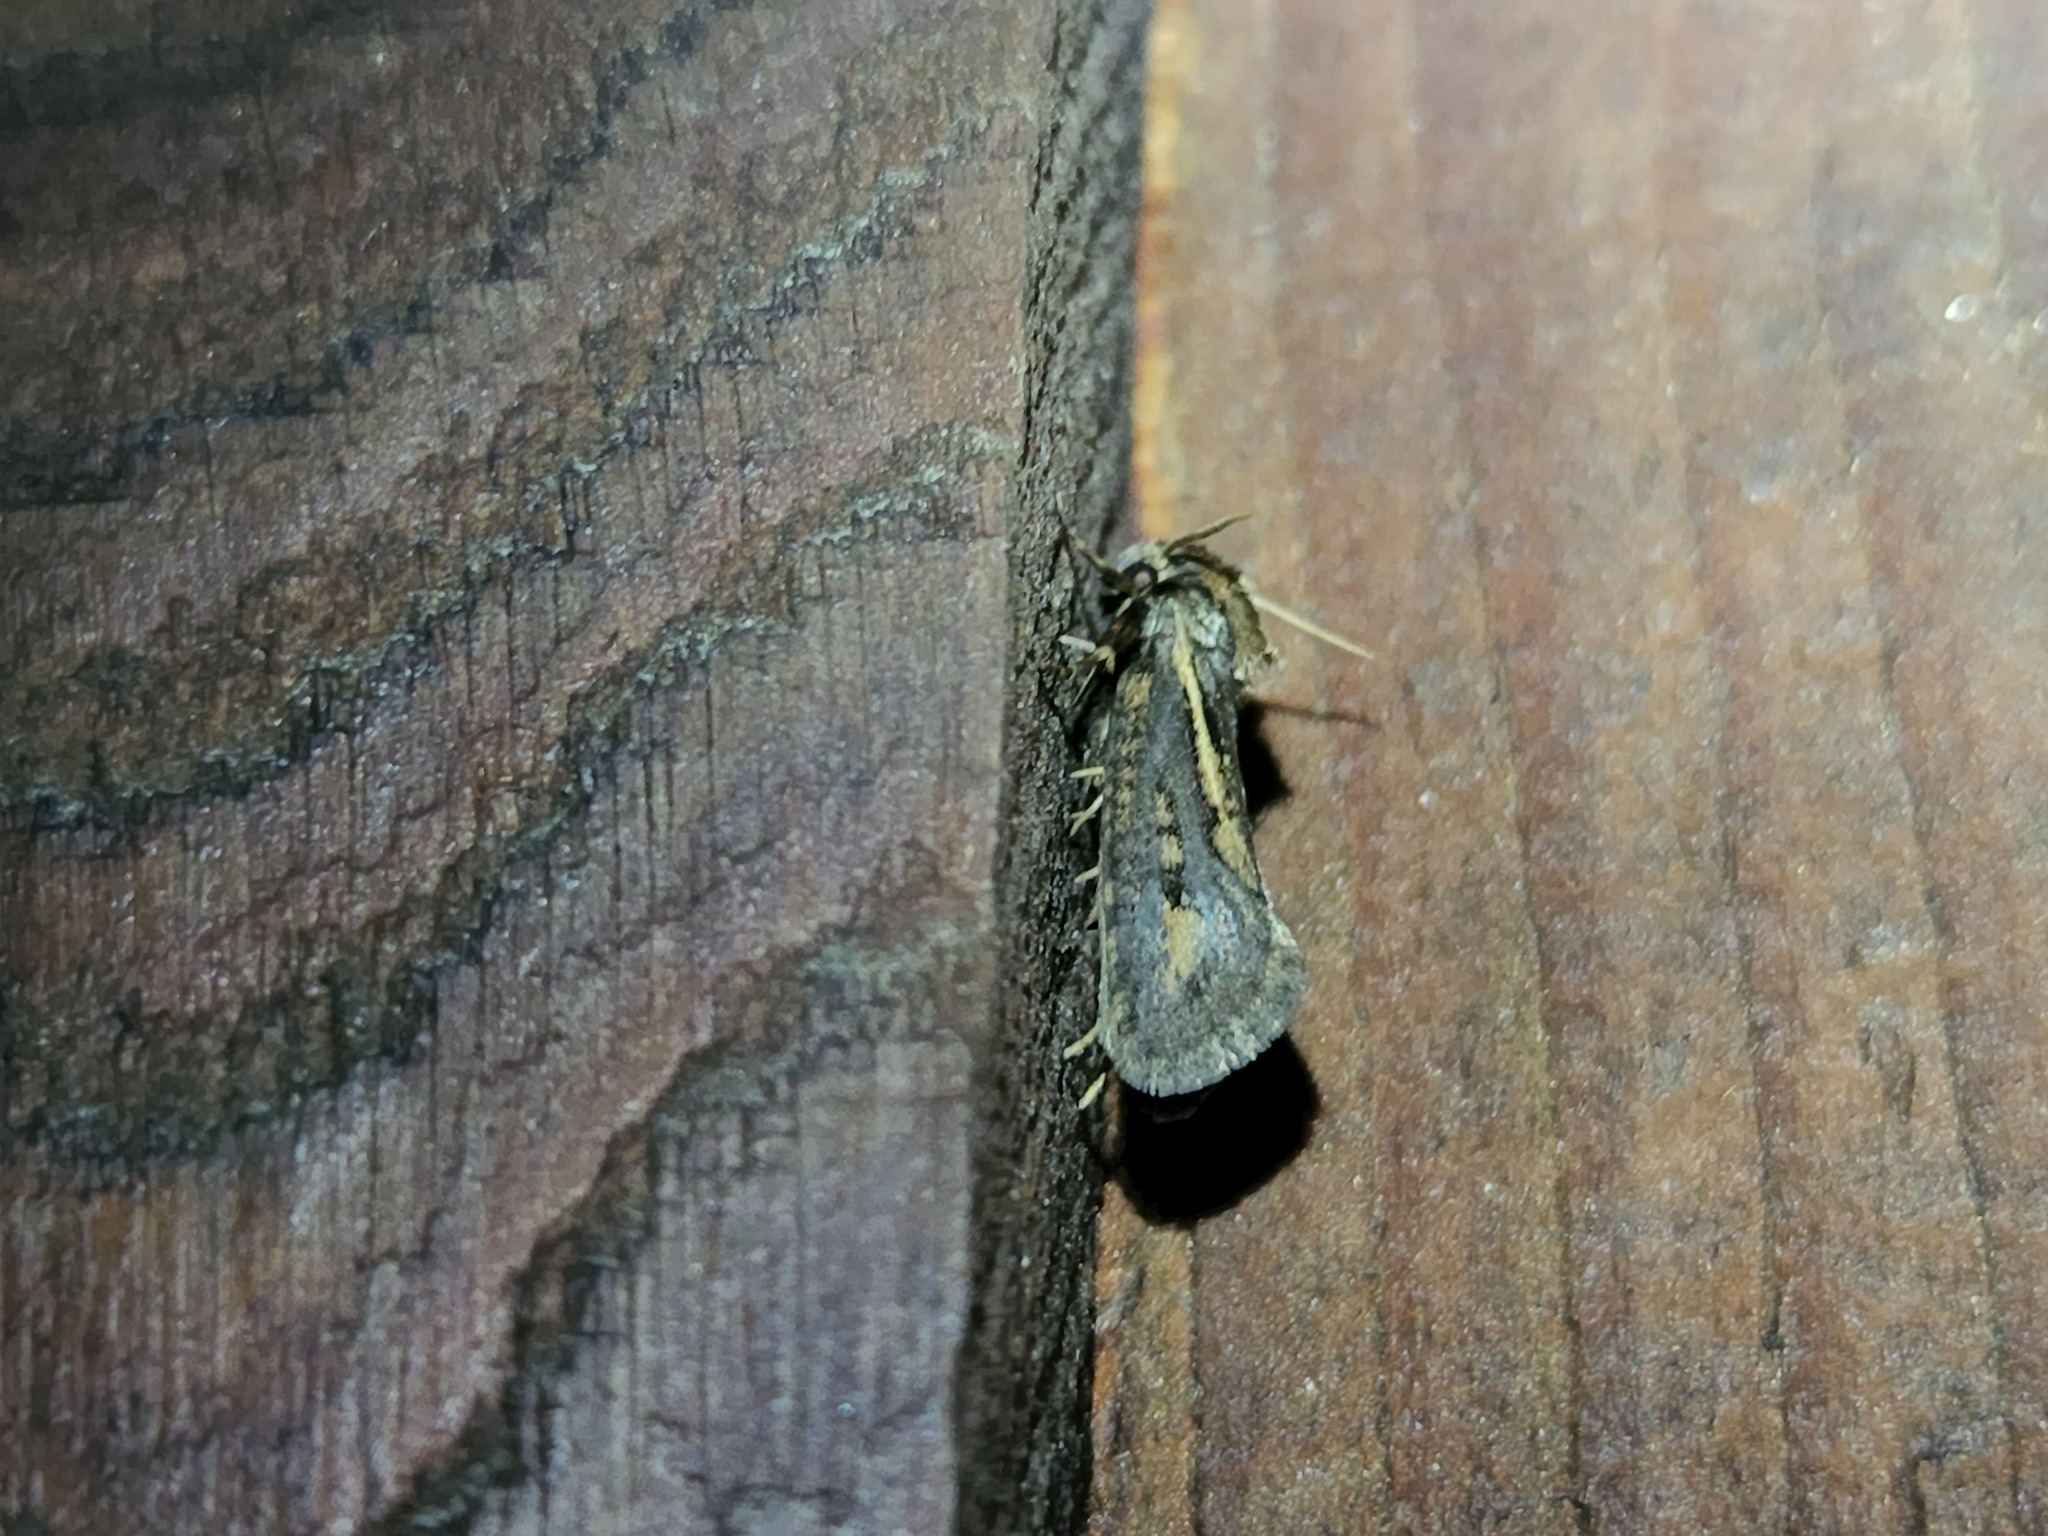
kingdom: Animalia
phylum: Arthropoda
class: Insecta
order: Lepidoptera
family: Tineidae
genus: Acrolophus
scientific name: Acrolophus popeanella
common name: Clemens' grass tubeworm moth
